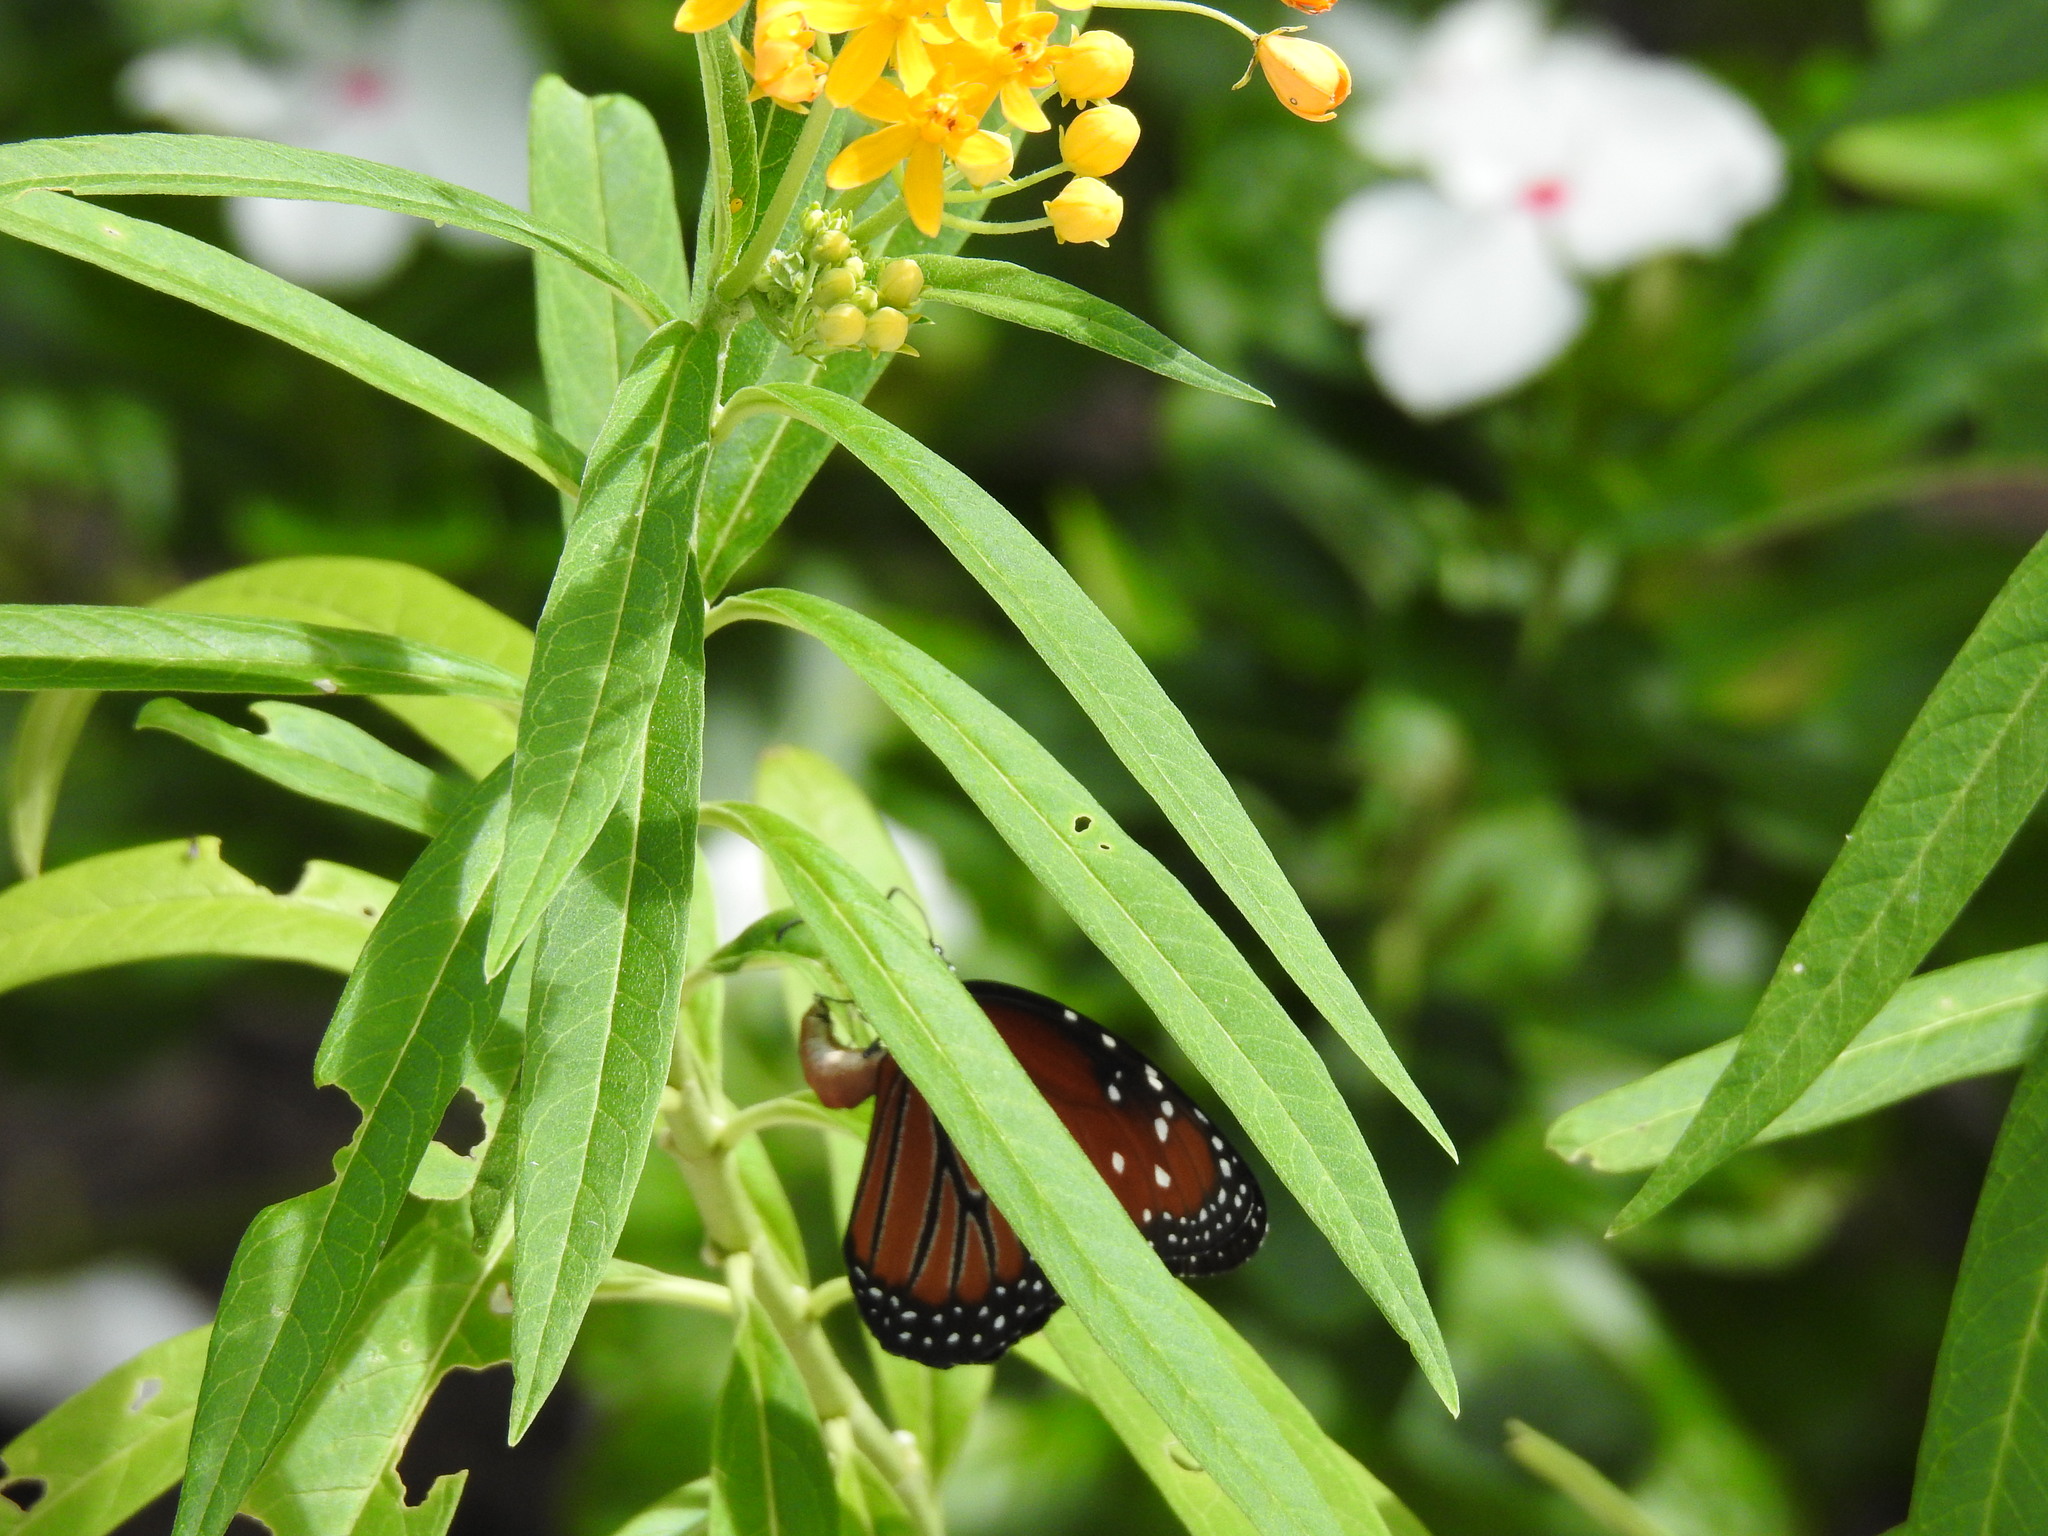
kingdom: Animalia
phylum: Arthropoda
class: Insecta
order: Lepidoptera
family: Nymphalidae
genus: Danaus
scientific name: Danaus gilippus
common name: Queen
